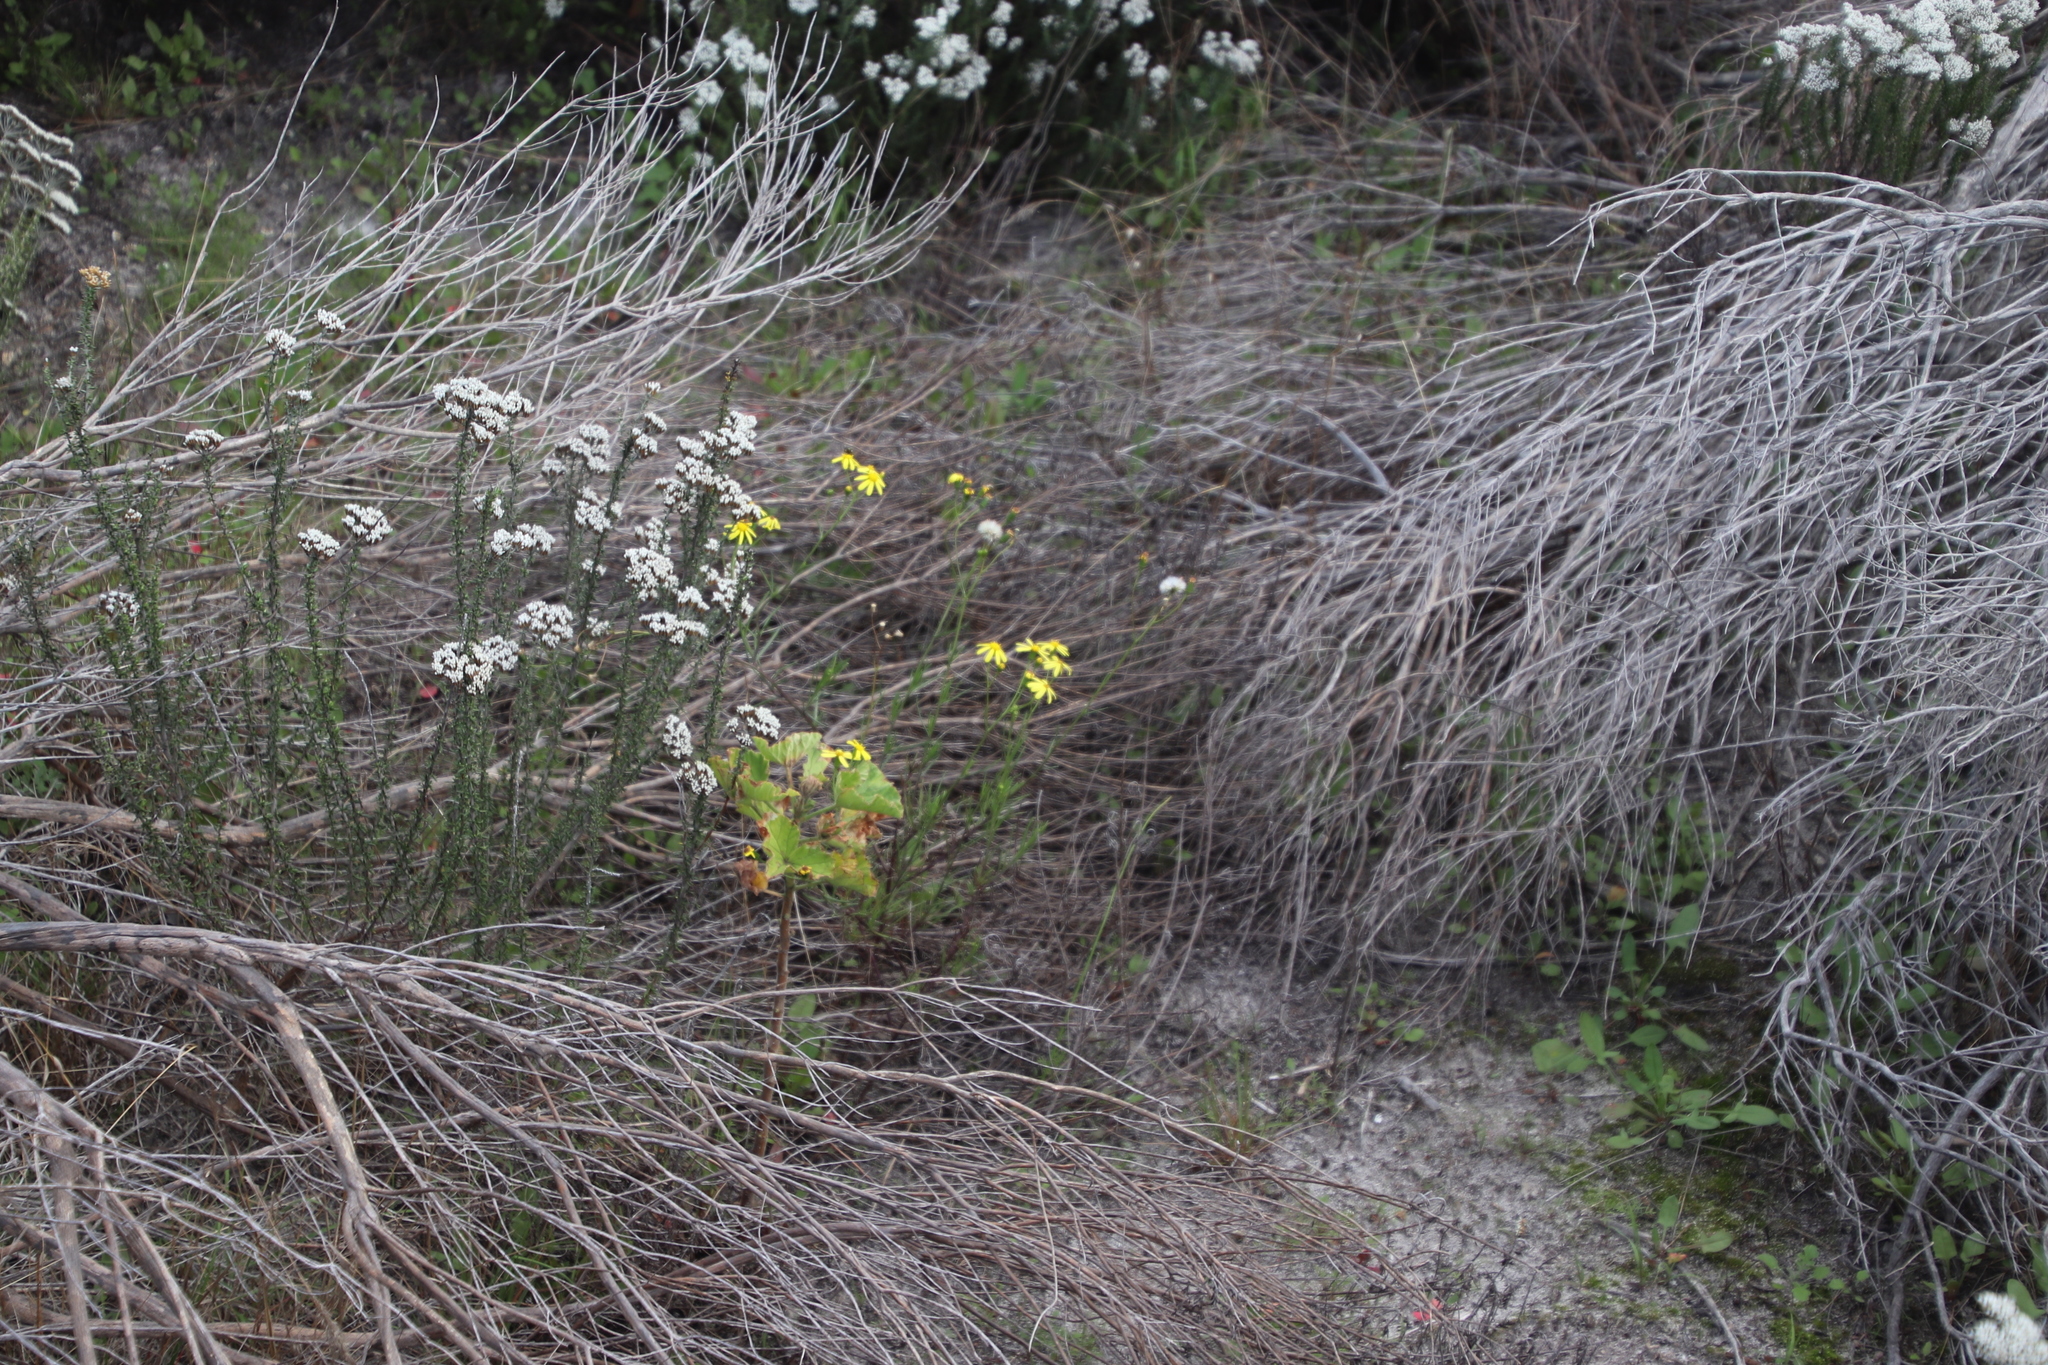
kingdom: Plantae
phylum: Tracheophyta
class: Magnoliopsida
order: Asterales
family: Asteraceae
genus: Senecio
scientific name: Senecio burchellii
